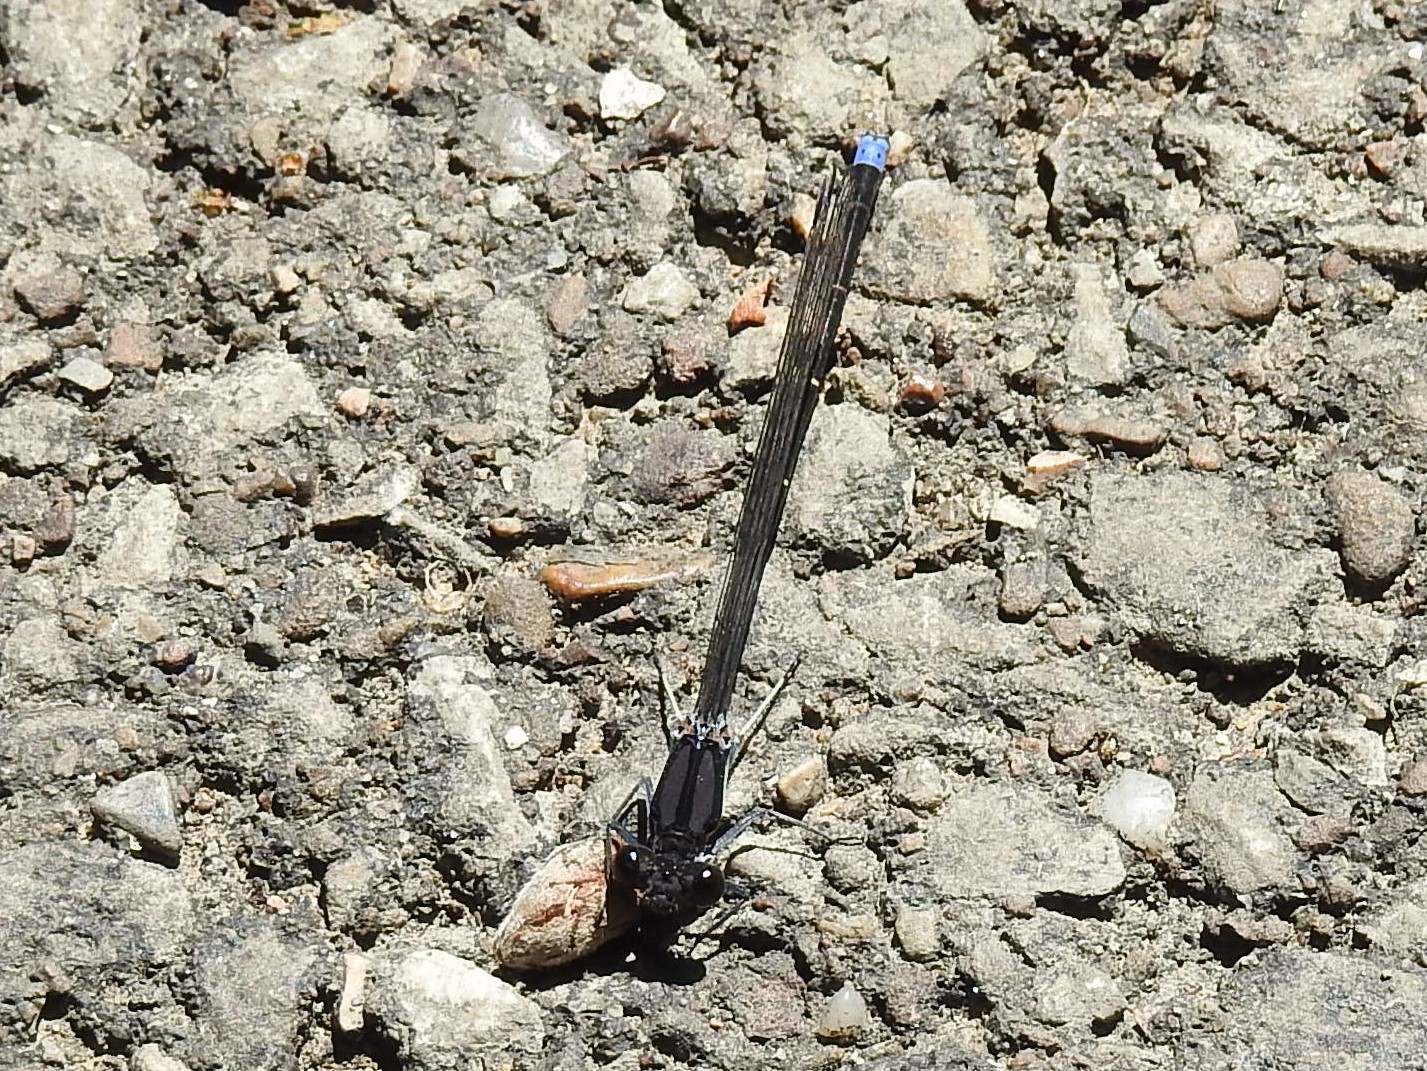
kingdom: Animalia
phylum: Arthropoda
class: Insecta
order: Odonata
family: Coenagrionidae
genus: Argia
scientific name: Argia tibialis
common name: Blue-tipped dancer
